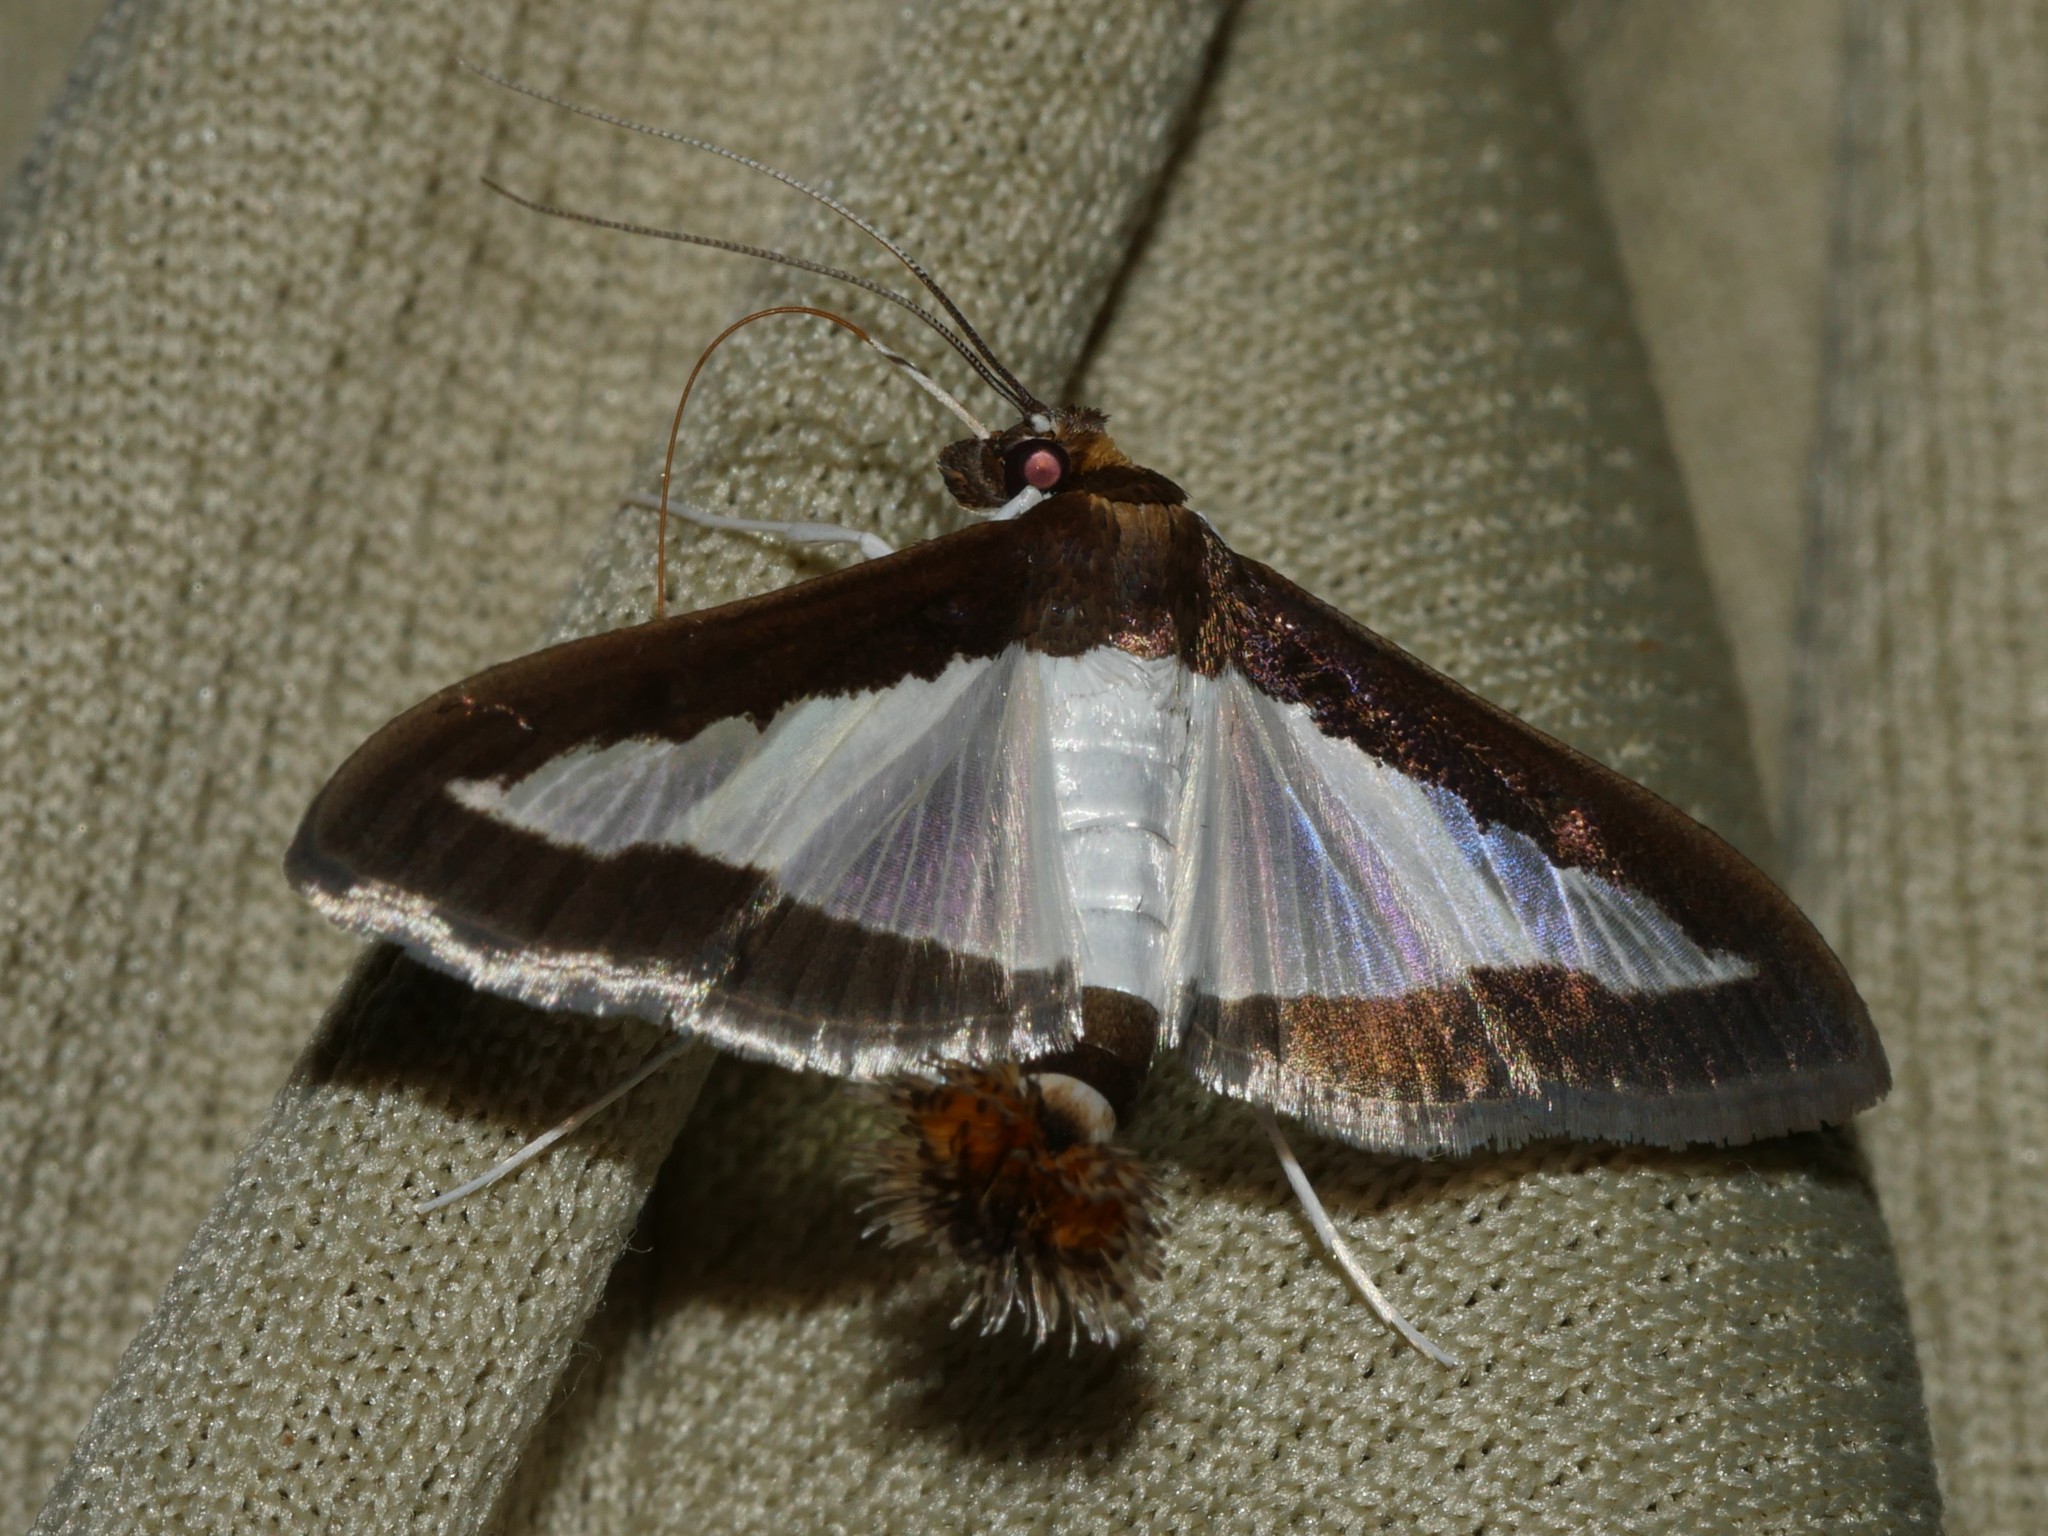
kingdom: Animalia
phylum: Arthropoda
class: Insecta
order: Lepidoptera
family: Crambidae
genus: Diaphania
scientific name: Diaphania indica
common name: Cucumber moth
